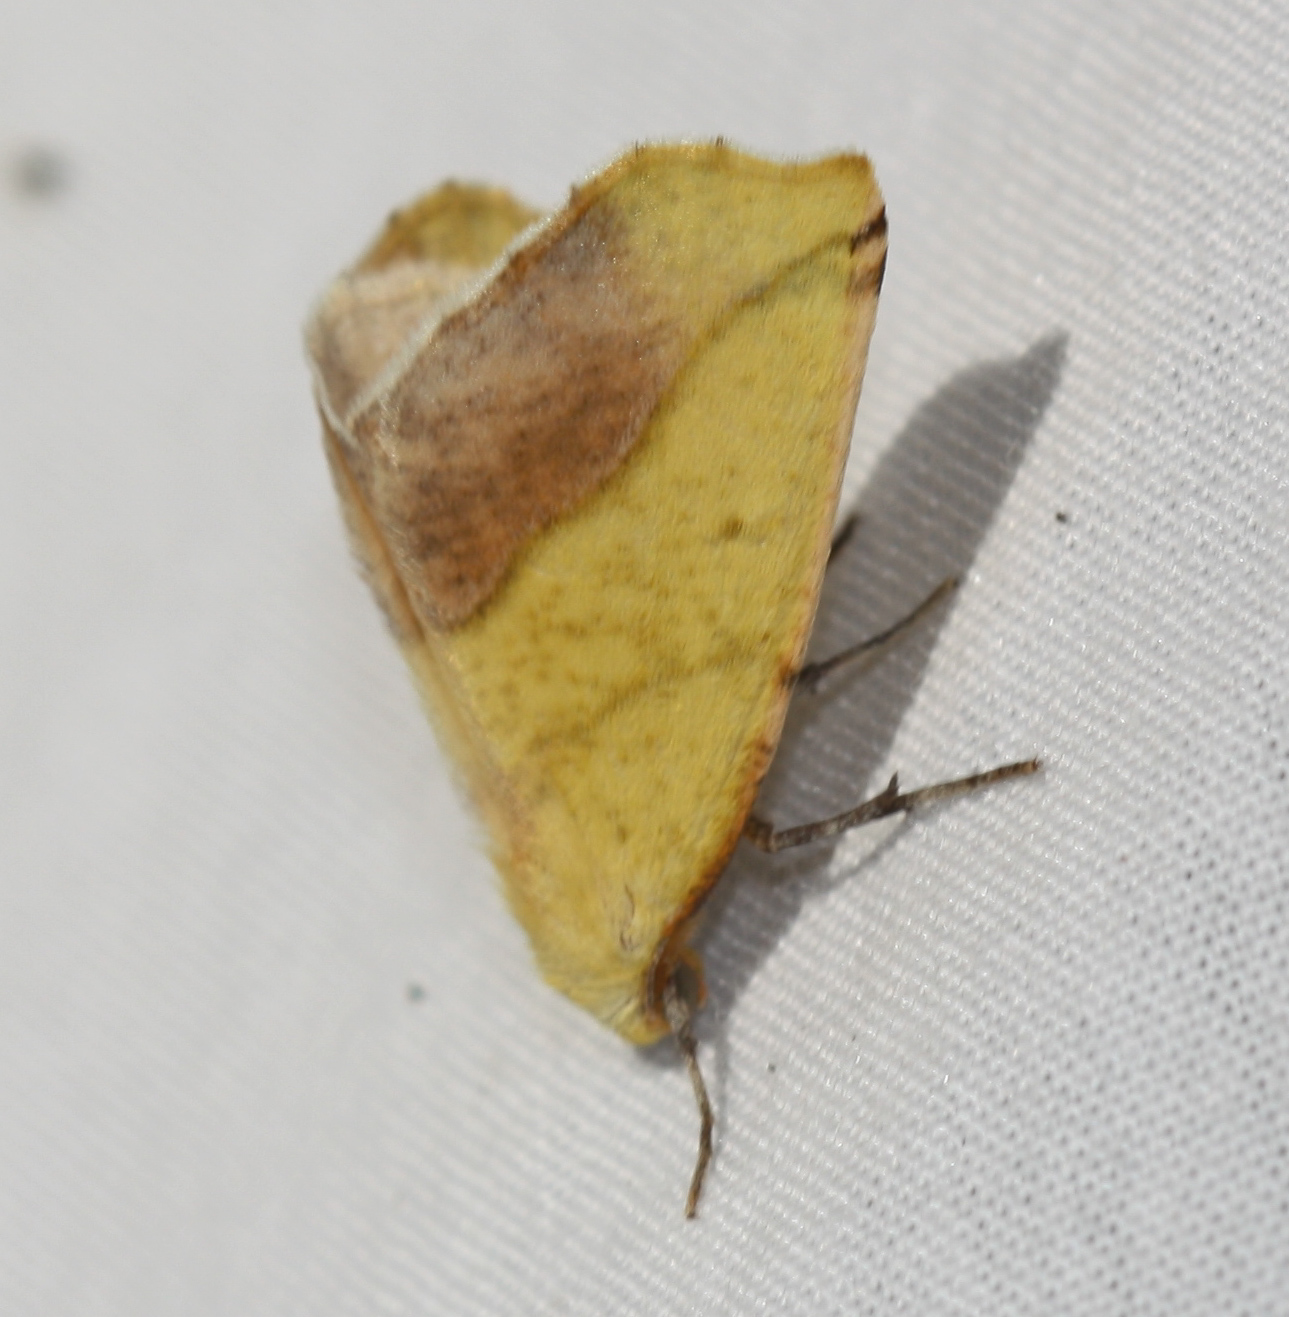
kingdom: Animalia
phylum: Arthropoda
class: Insecta
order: Lepidoptera
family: Geometridae
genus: Sicya
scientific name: Sicya macularia
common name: Sharp-lined yellow
